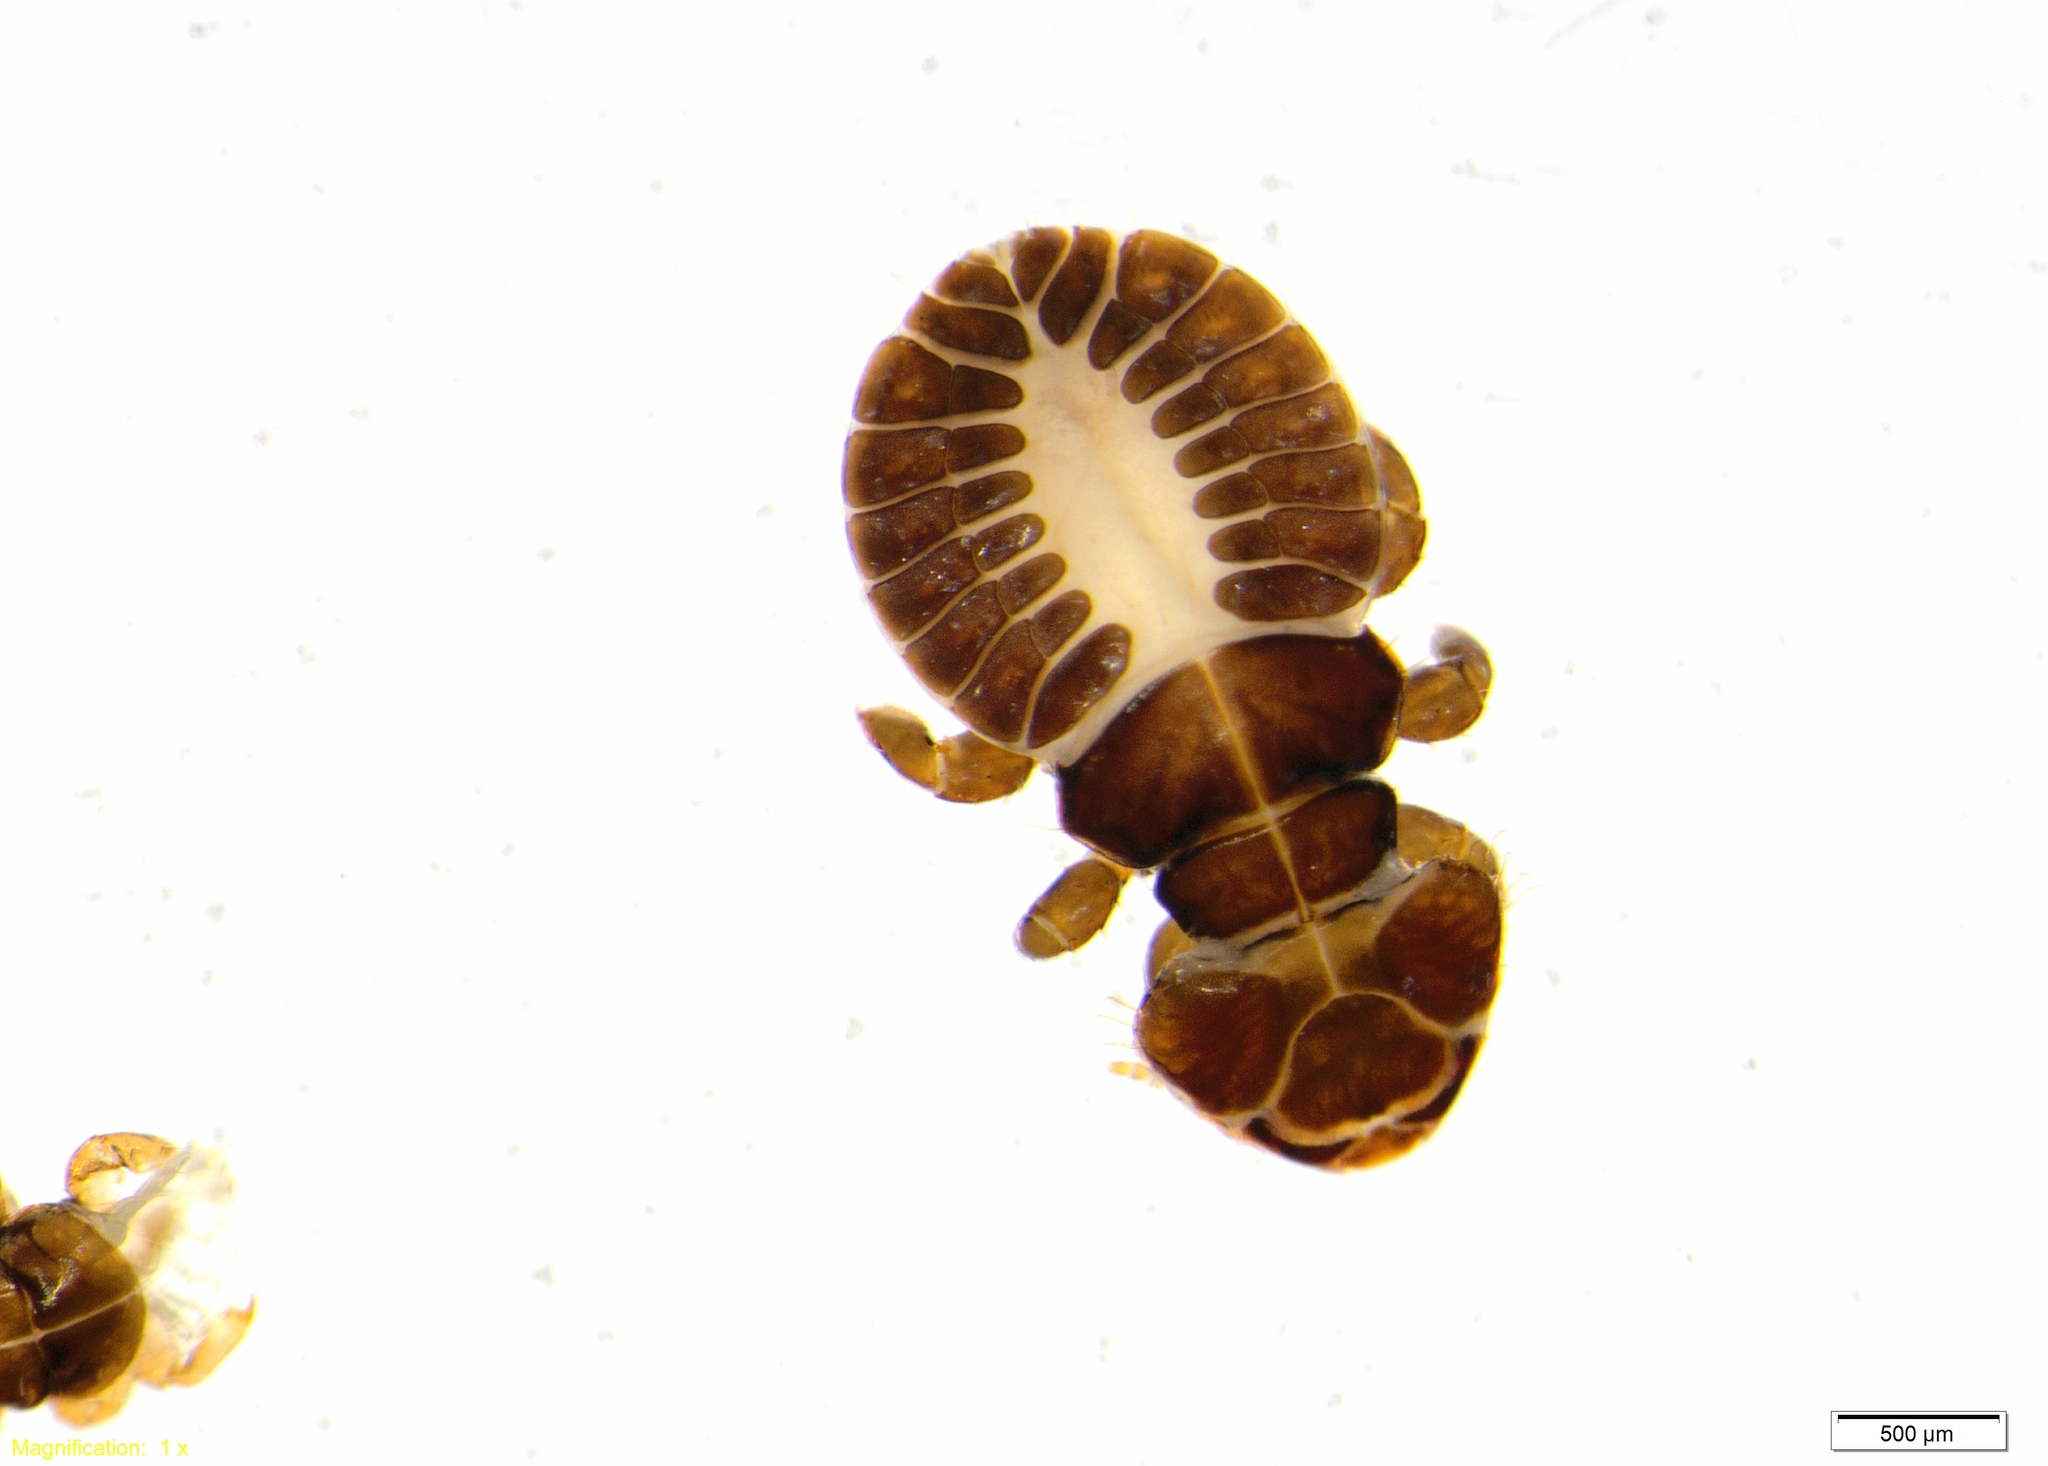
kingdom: Animalia
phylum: Arthropoda
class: Insecta
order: Psocodea
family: Philopteridae
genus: Docophoroides
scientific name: Docophoroides brevis
